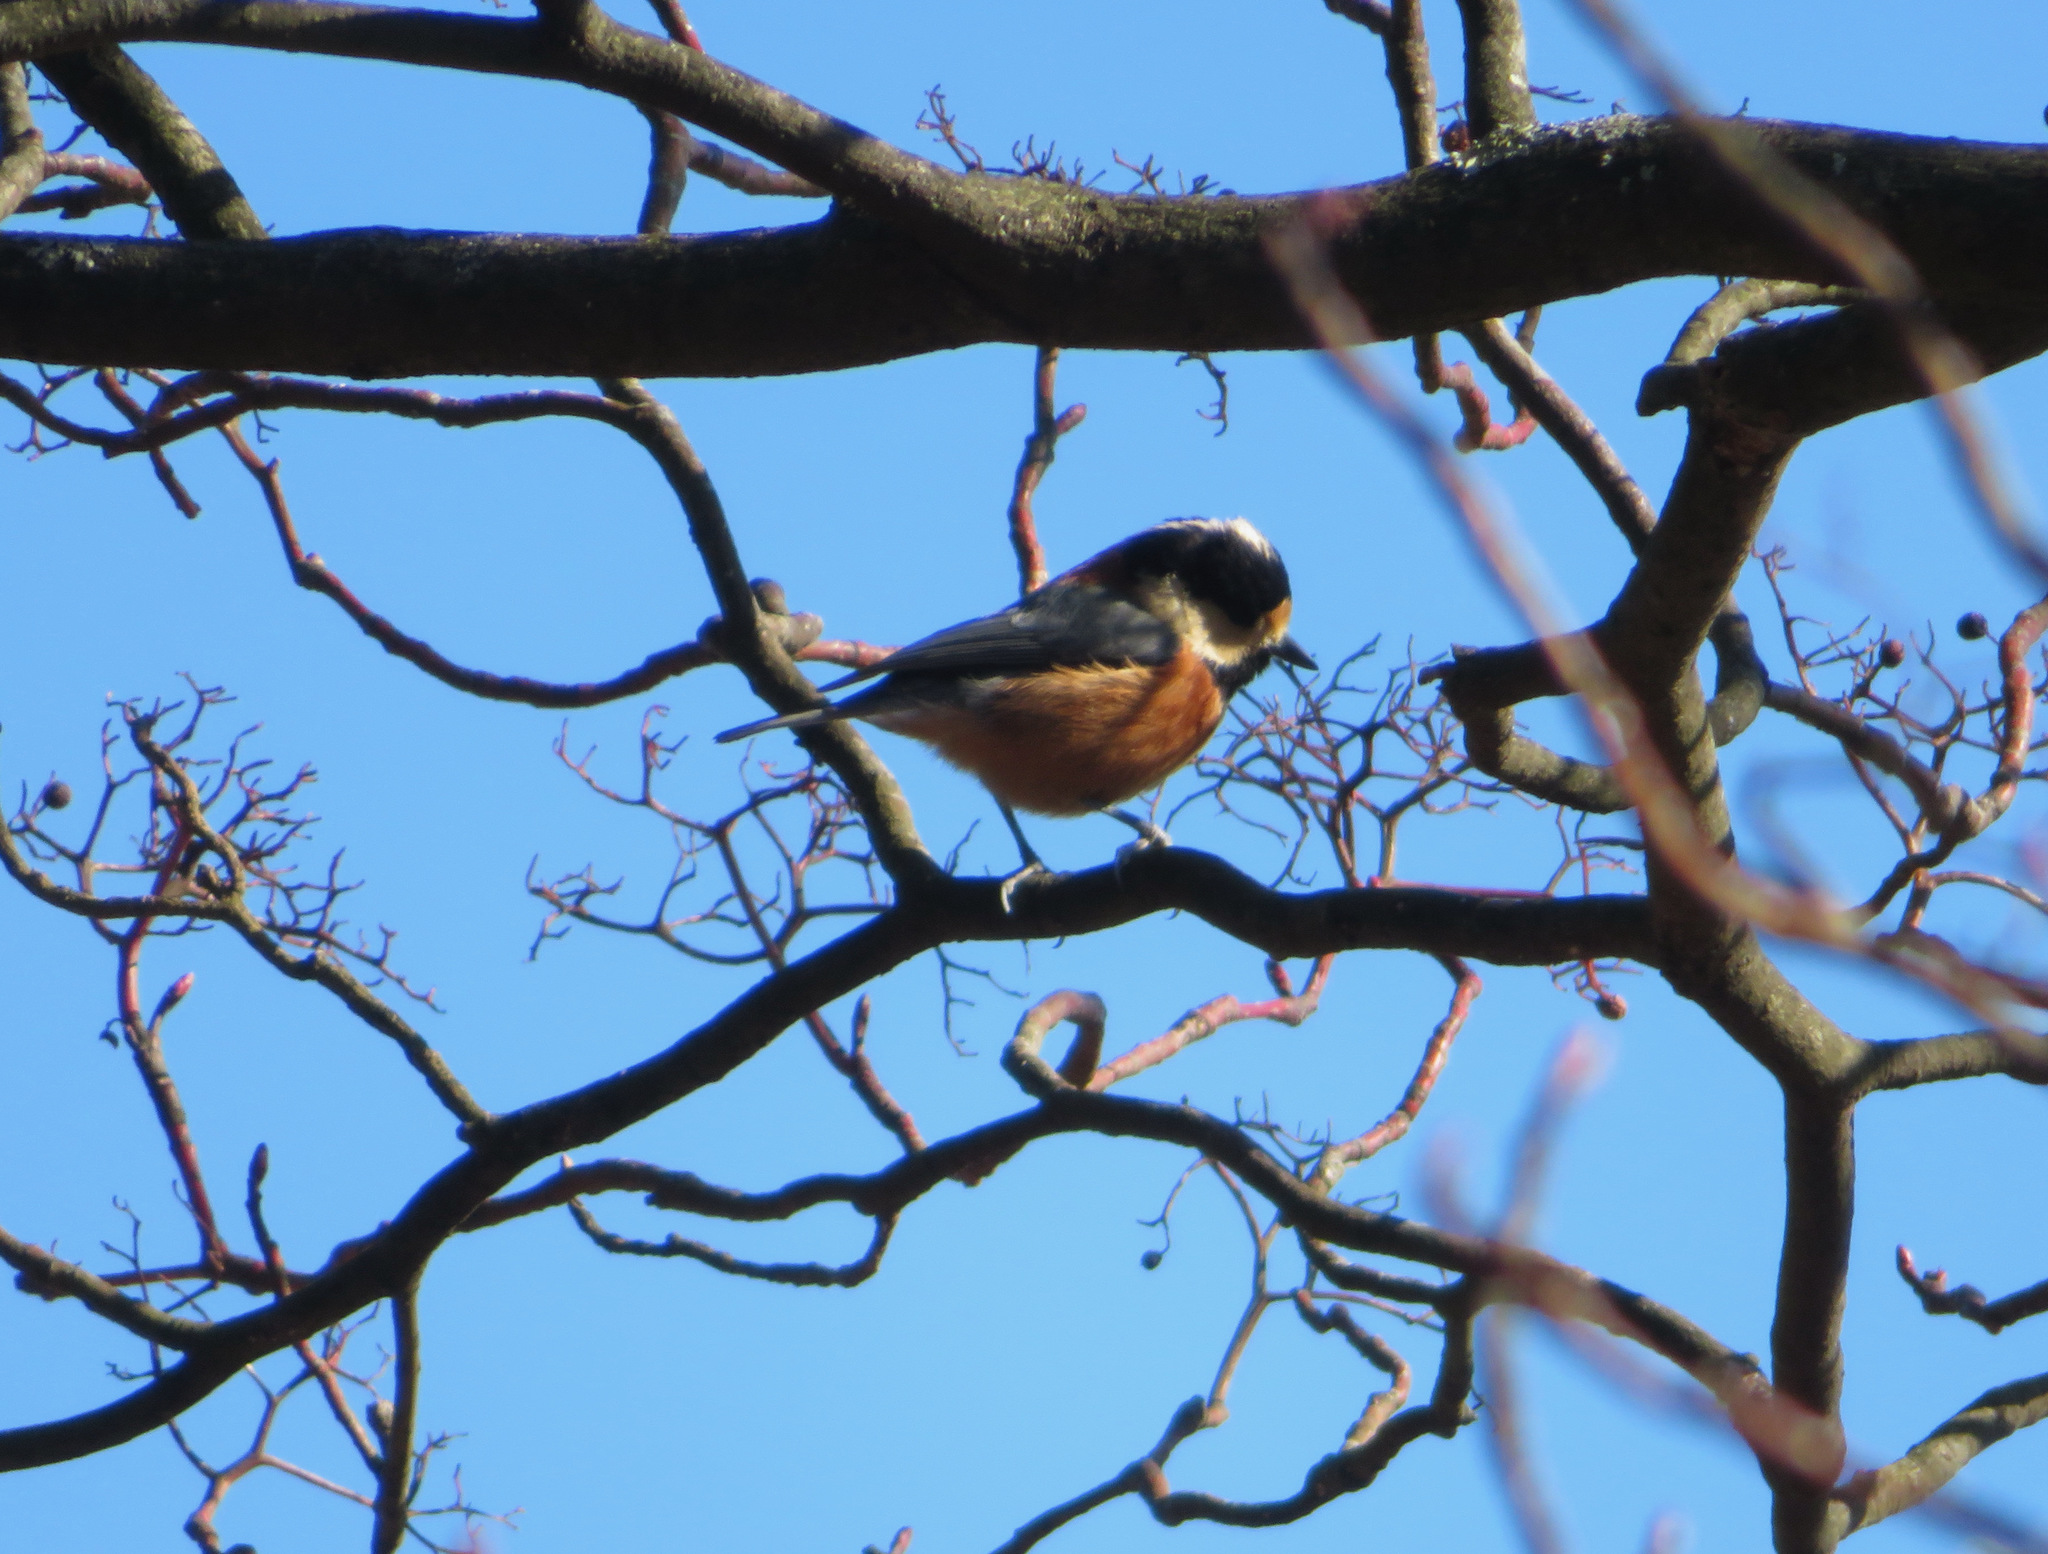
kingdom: Animalia
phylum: Chordata
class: Aves
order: Passeriformes
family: Paridae
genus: Poecile
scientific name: Poecile varius
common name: Varied tit
